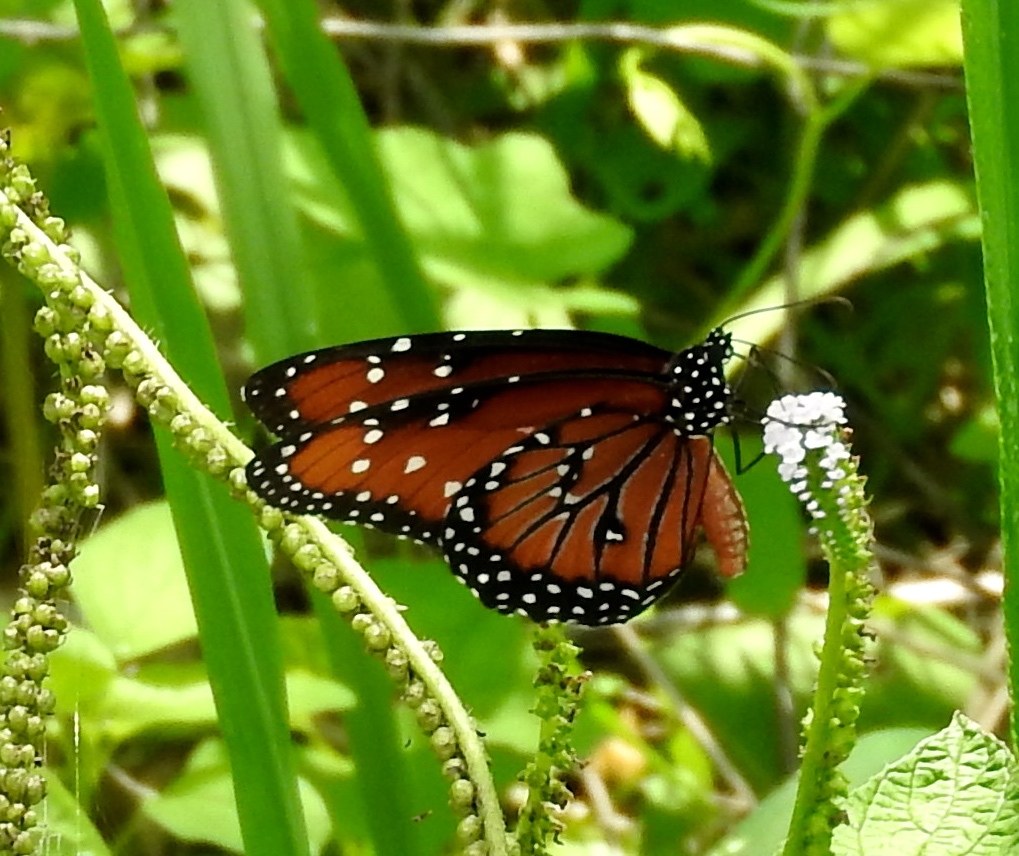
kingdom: Animalia
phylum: Arthropoda
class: Insecta
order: Lepidoptera
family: Nymphalidae
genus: Danaus
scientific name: Danaus gilippus
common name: Queen
